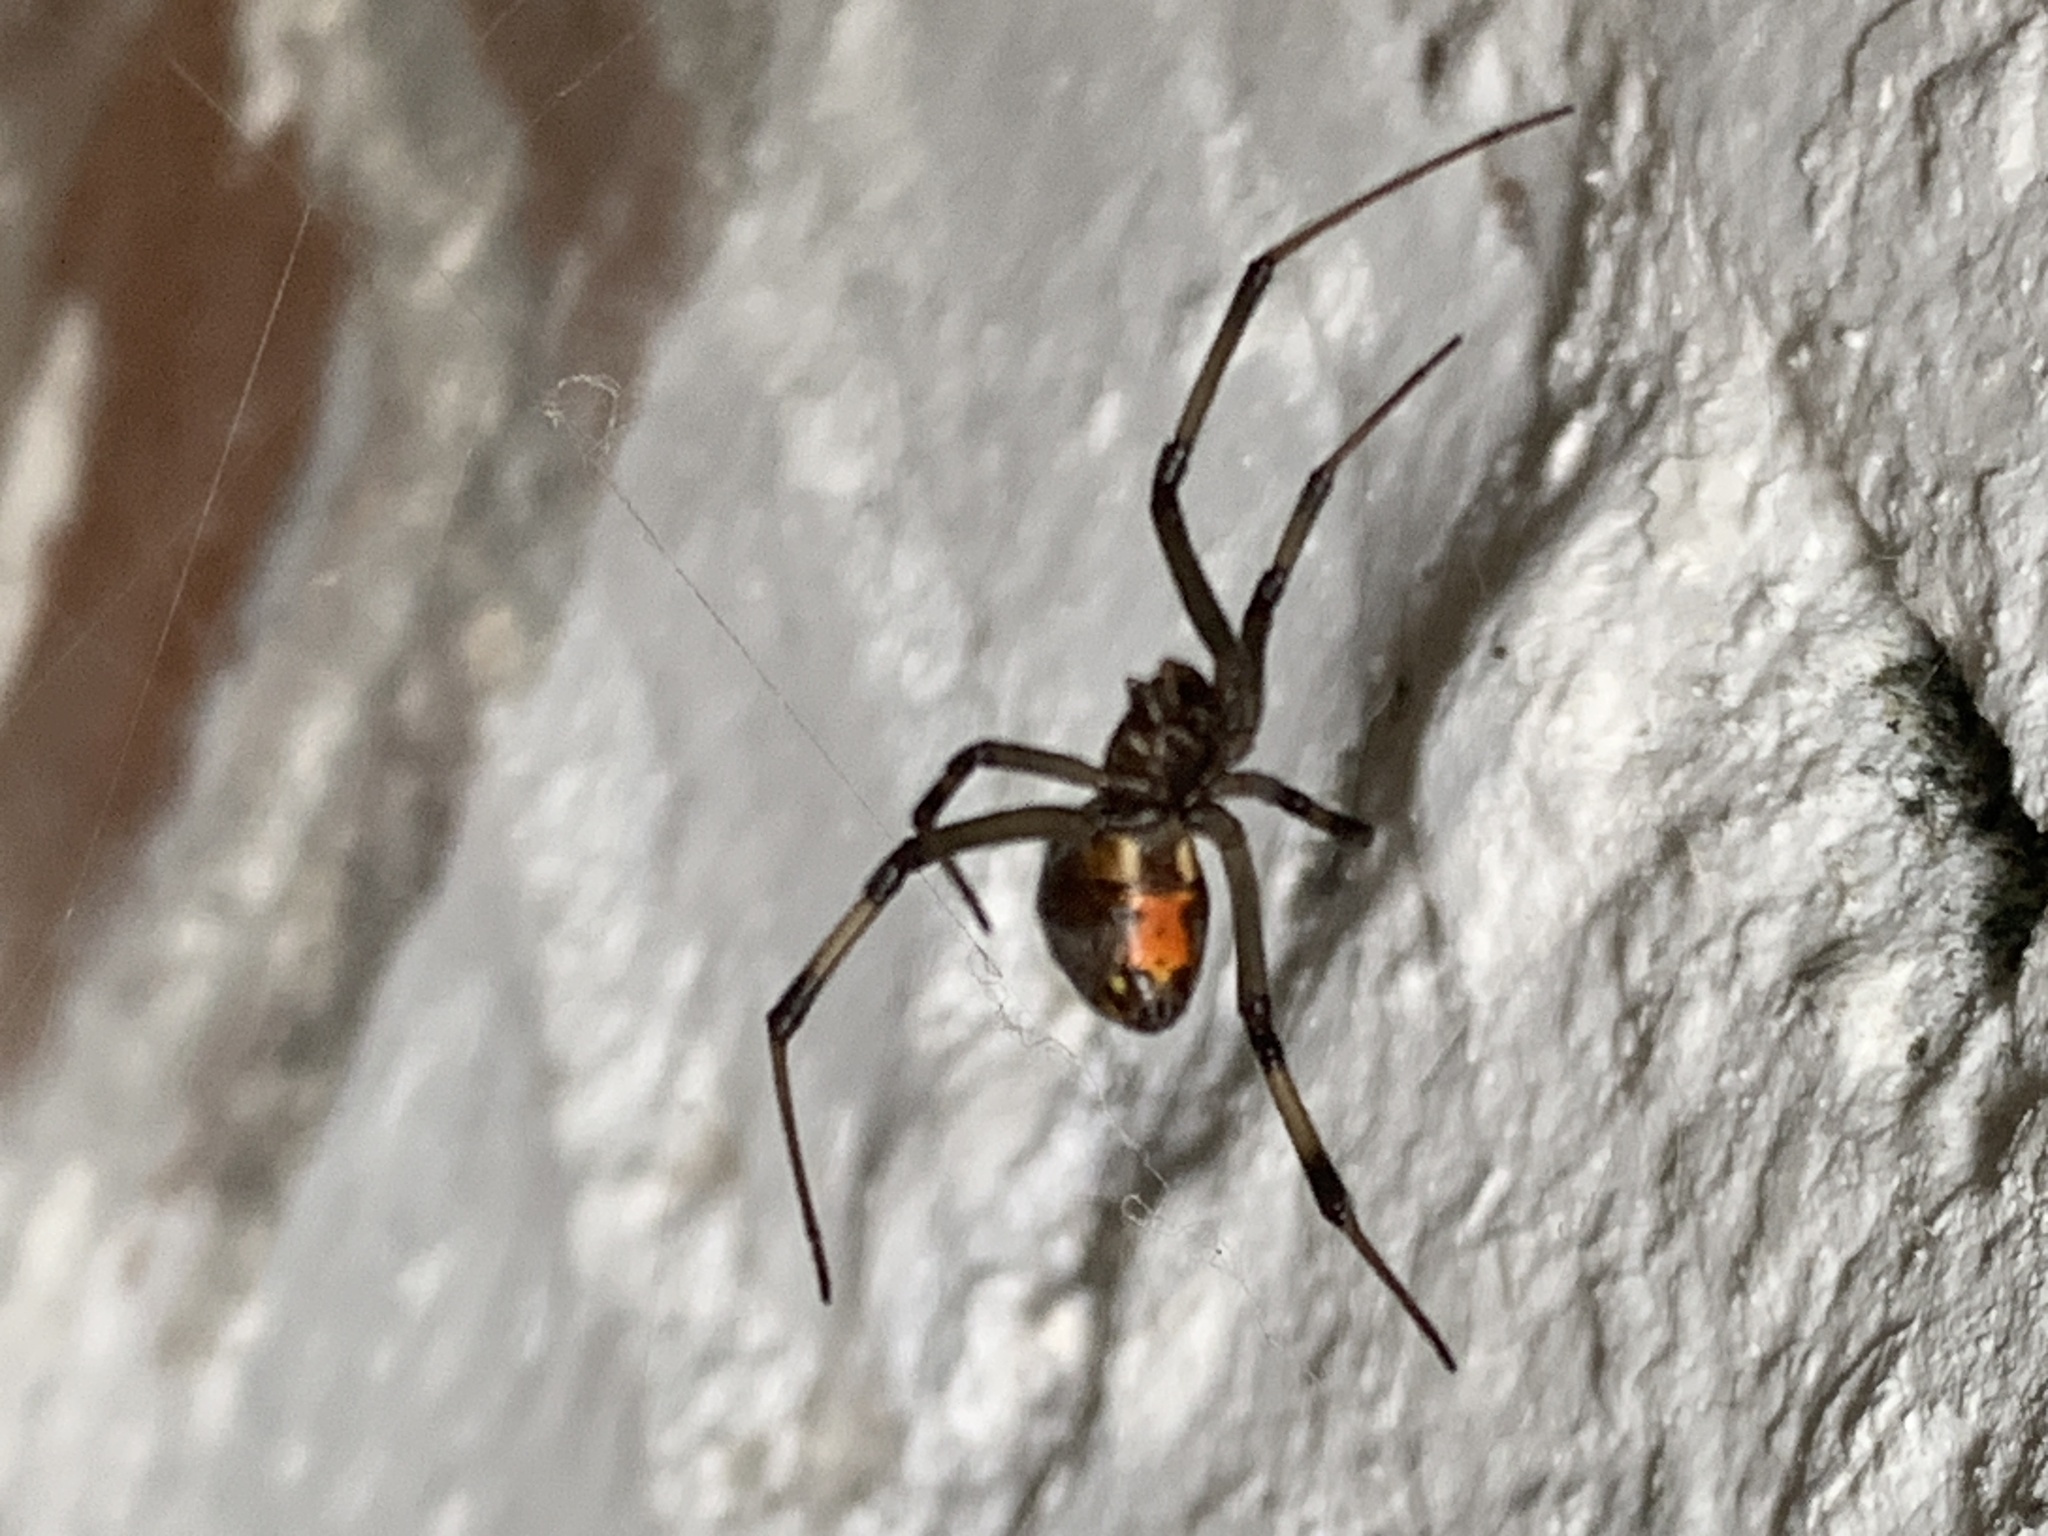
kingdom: Animalia
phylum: Arthropoda
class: Arachnida
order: Araneae
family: Theridiidae
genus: Latrodectus
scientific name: Latrodectus geometricus
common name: Brown widow spider
